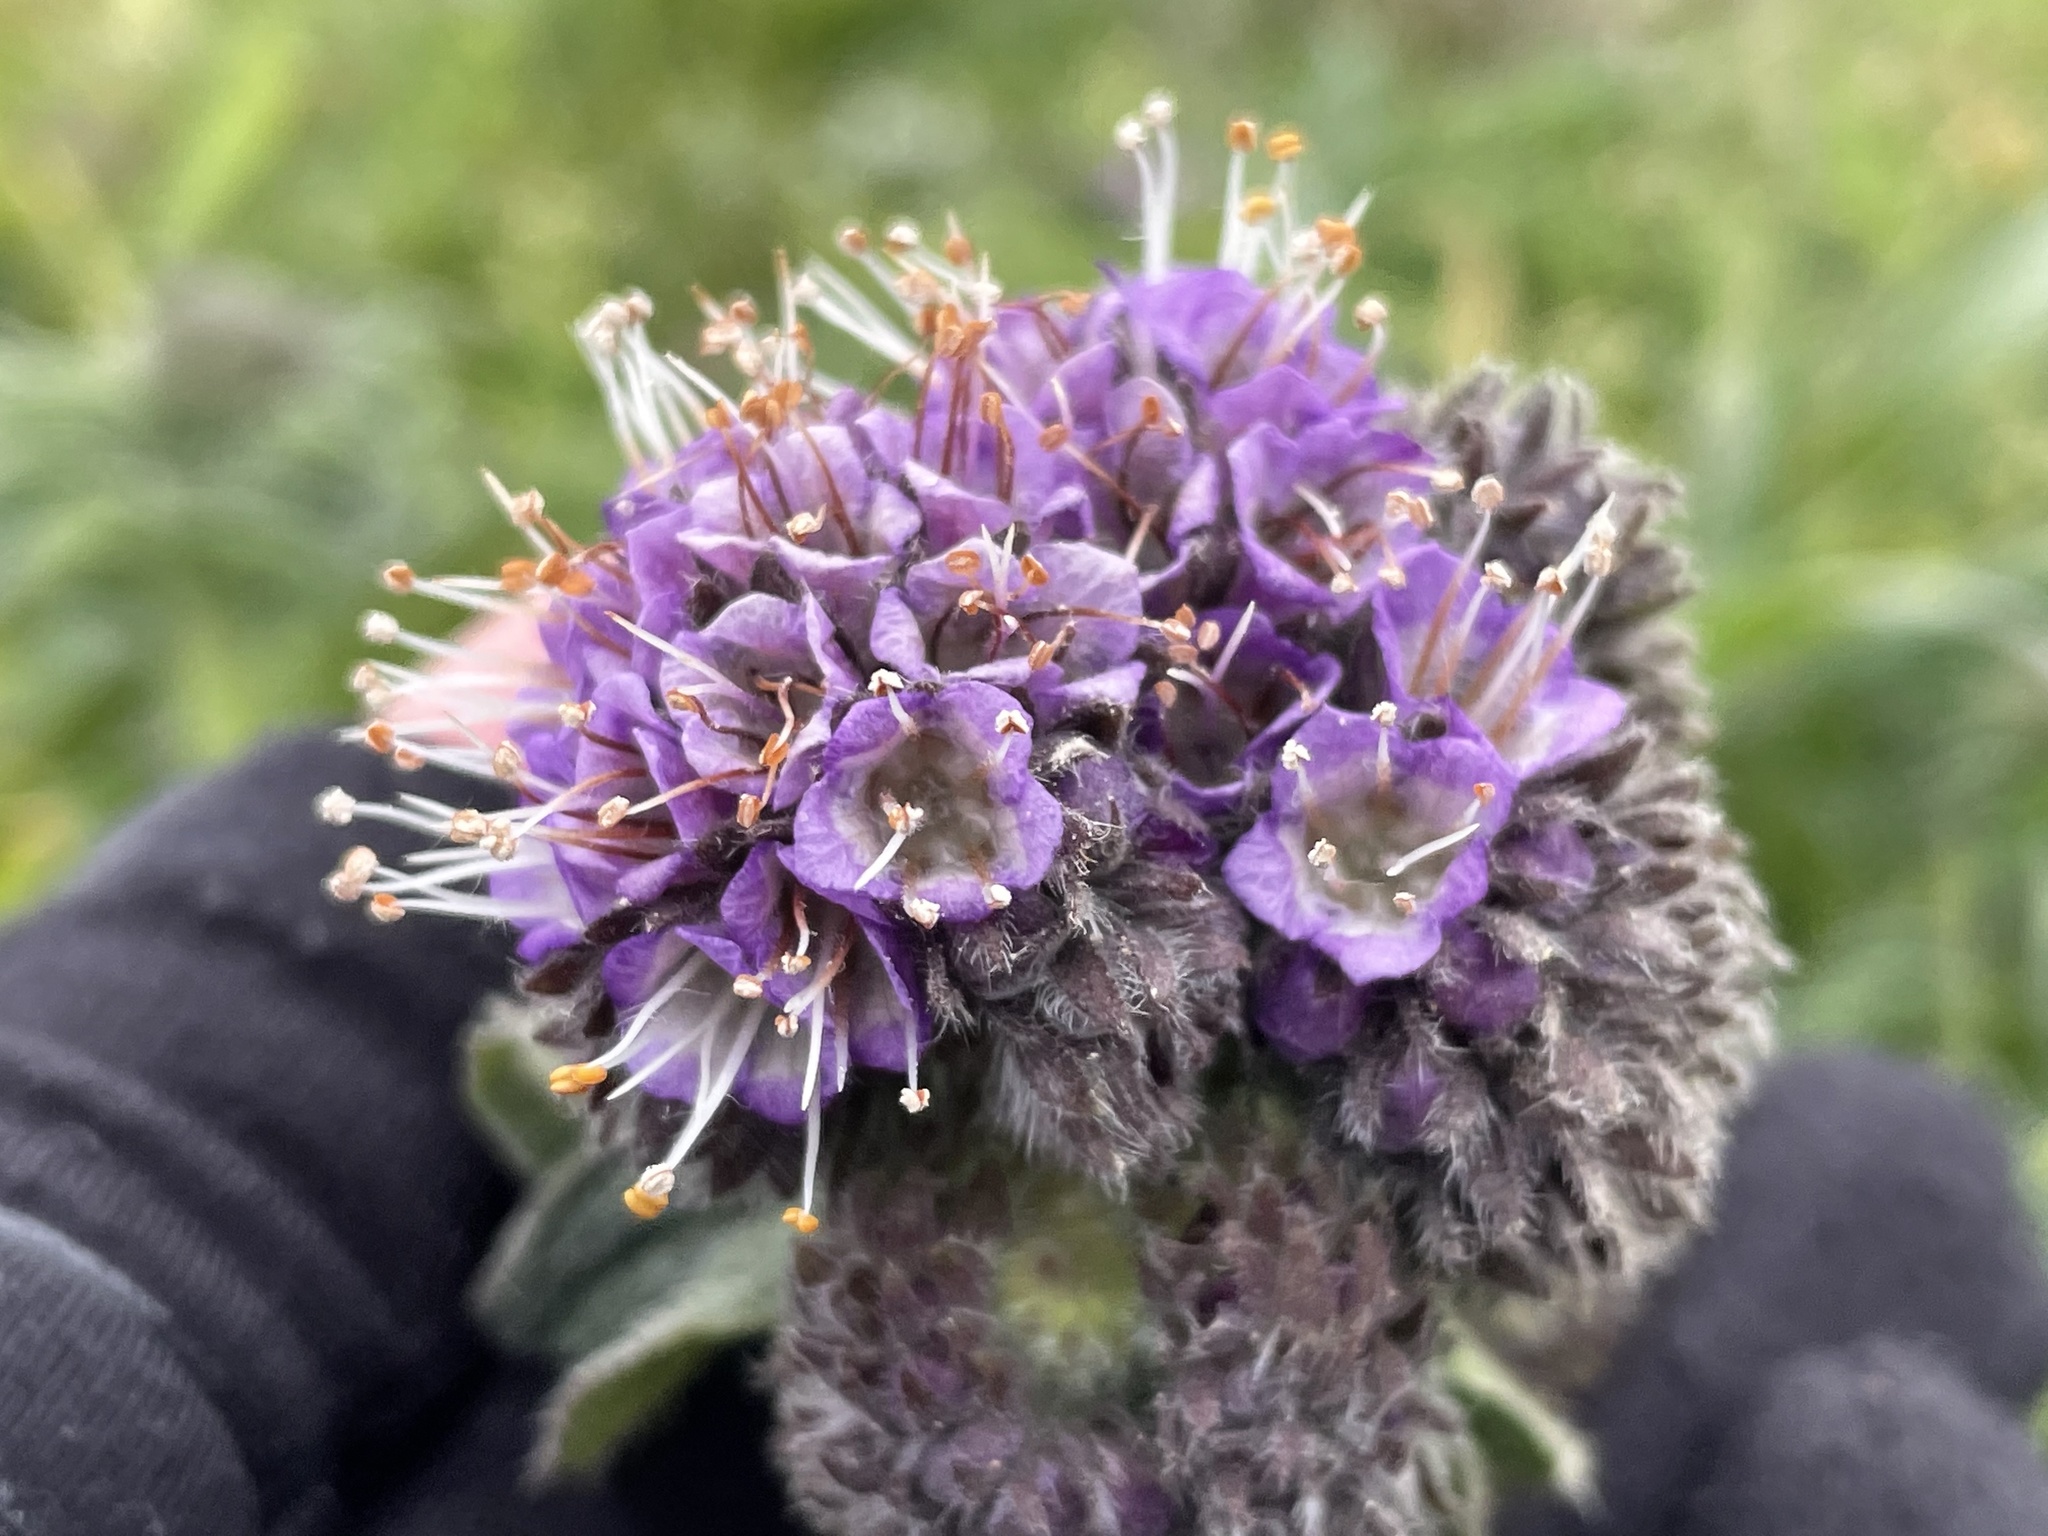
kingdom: Plantae
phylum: Tracheophyta
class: Magnoliopsida
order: Boraginales
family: Hydrophyllaceae
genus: Phacelia
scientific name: Phacelia californica
